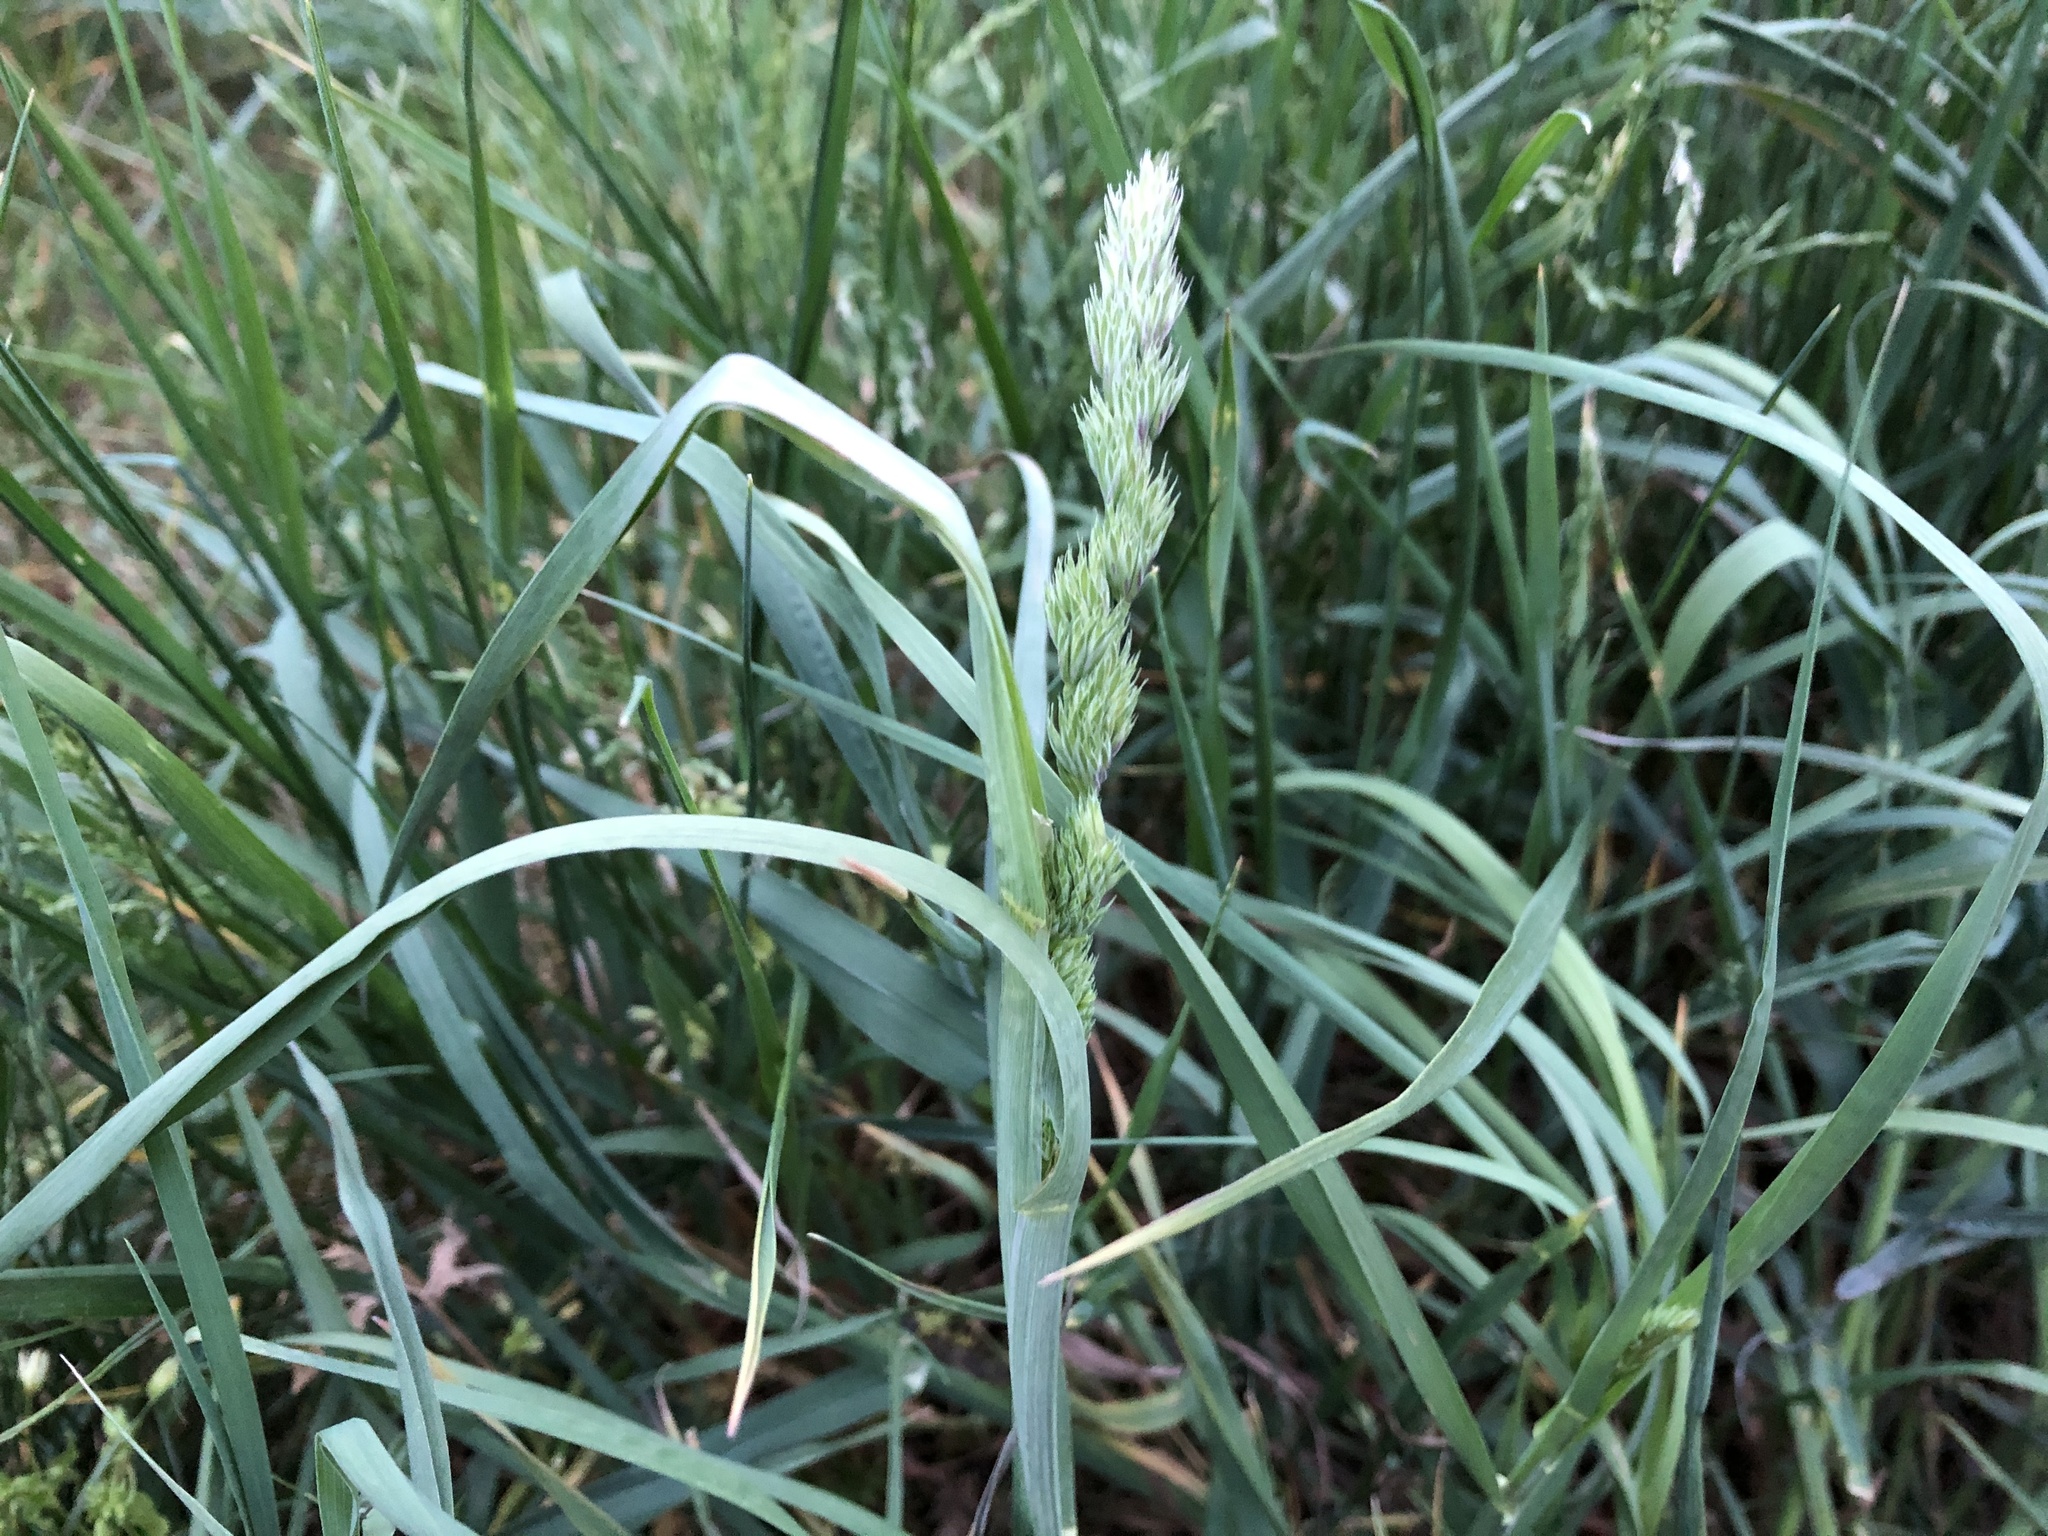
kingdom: Plantae
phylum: Tracheophyta
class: Liliopsida
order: Poales
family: Poaceae
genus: Dactylis
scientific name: Dactylis glomerata
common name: Orchardgrass
